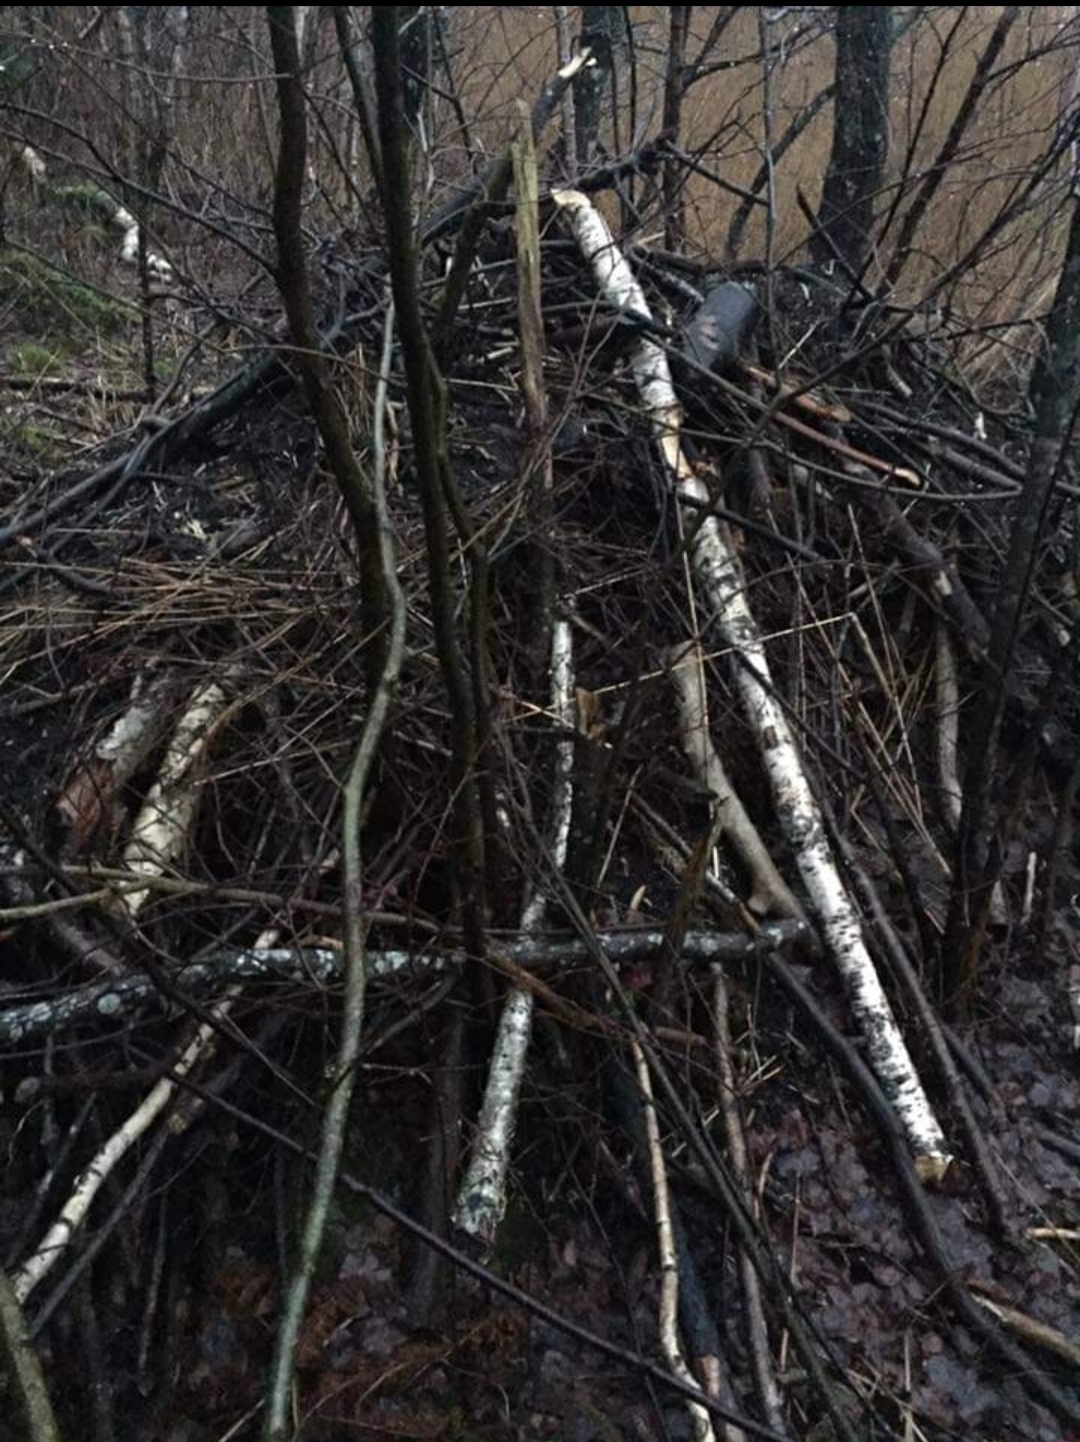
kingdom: Animalia
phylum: Chordata
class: Mammalia
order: Rodentia
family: Castoridae
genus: Castor
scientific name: Castor fiber
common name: Eurasian beaver
